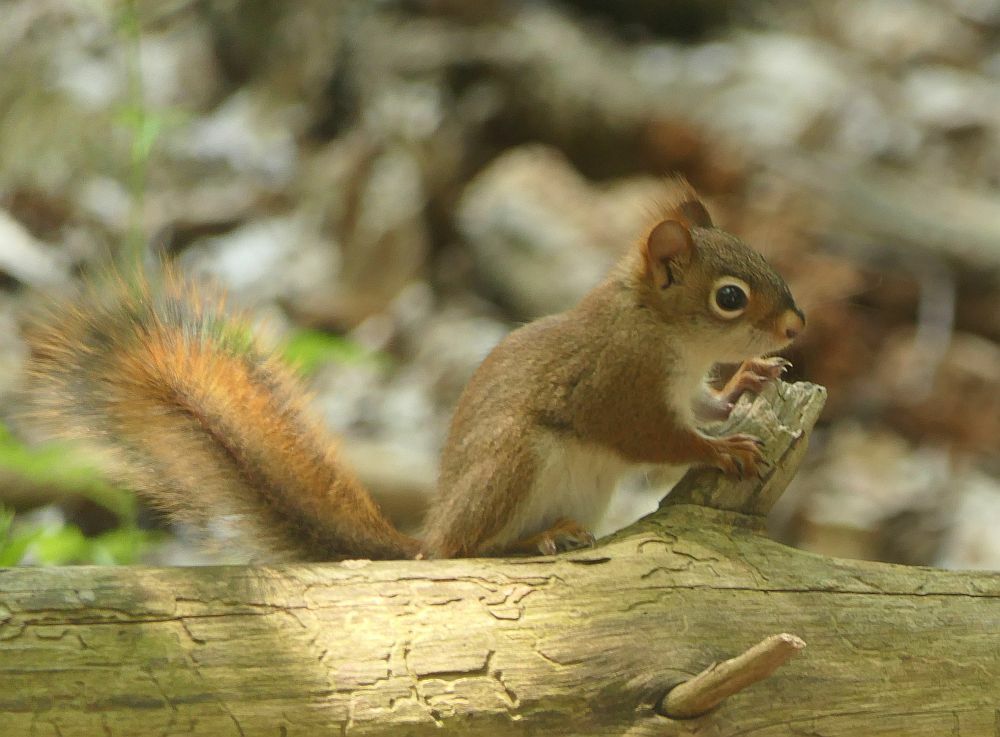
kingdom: Animalia
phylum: Chordata
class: Mammalia
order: Rodentia
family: Sciuridae
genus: Tamiasciurus
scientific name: Tamiasciurus hudsonicus
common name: Red squirrel
